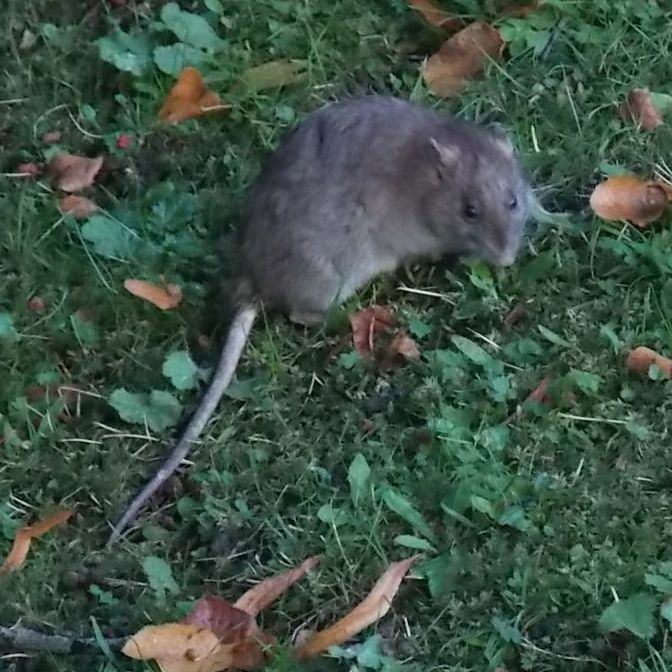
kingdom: Animalia
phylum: Chordata
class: Mammalia
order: Rodentia
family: Muridae
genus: Rattus
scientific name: Rattus norvegicus
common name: Brown rat
